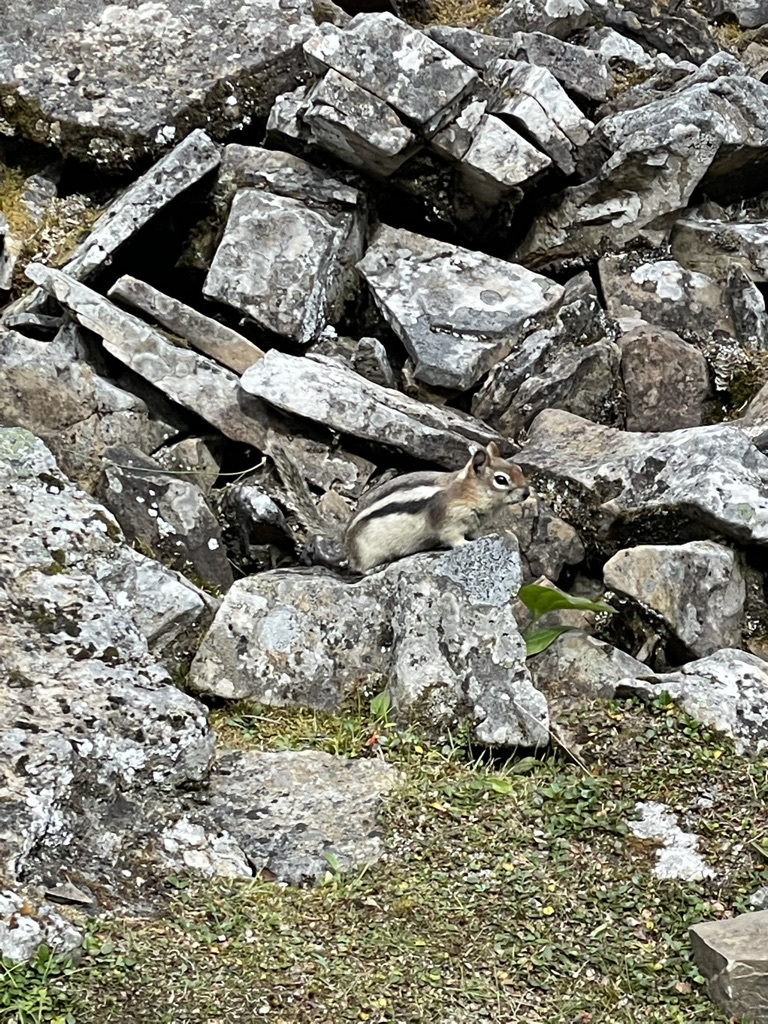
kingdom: Animalia
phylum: Chordata
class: Mammalia
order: Rodentia
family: Sciuridae
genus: Callospermophilus
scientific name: Callospermophilus lateralis
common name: Golden-mantled ground squirrel
